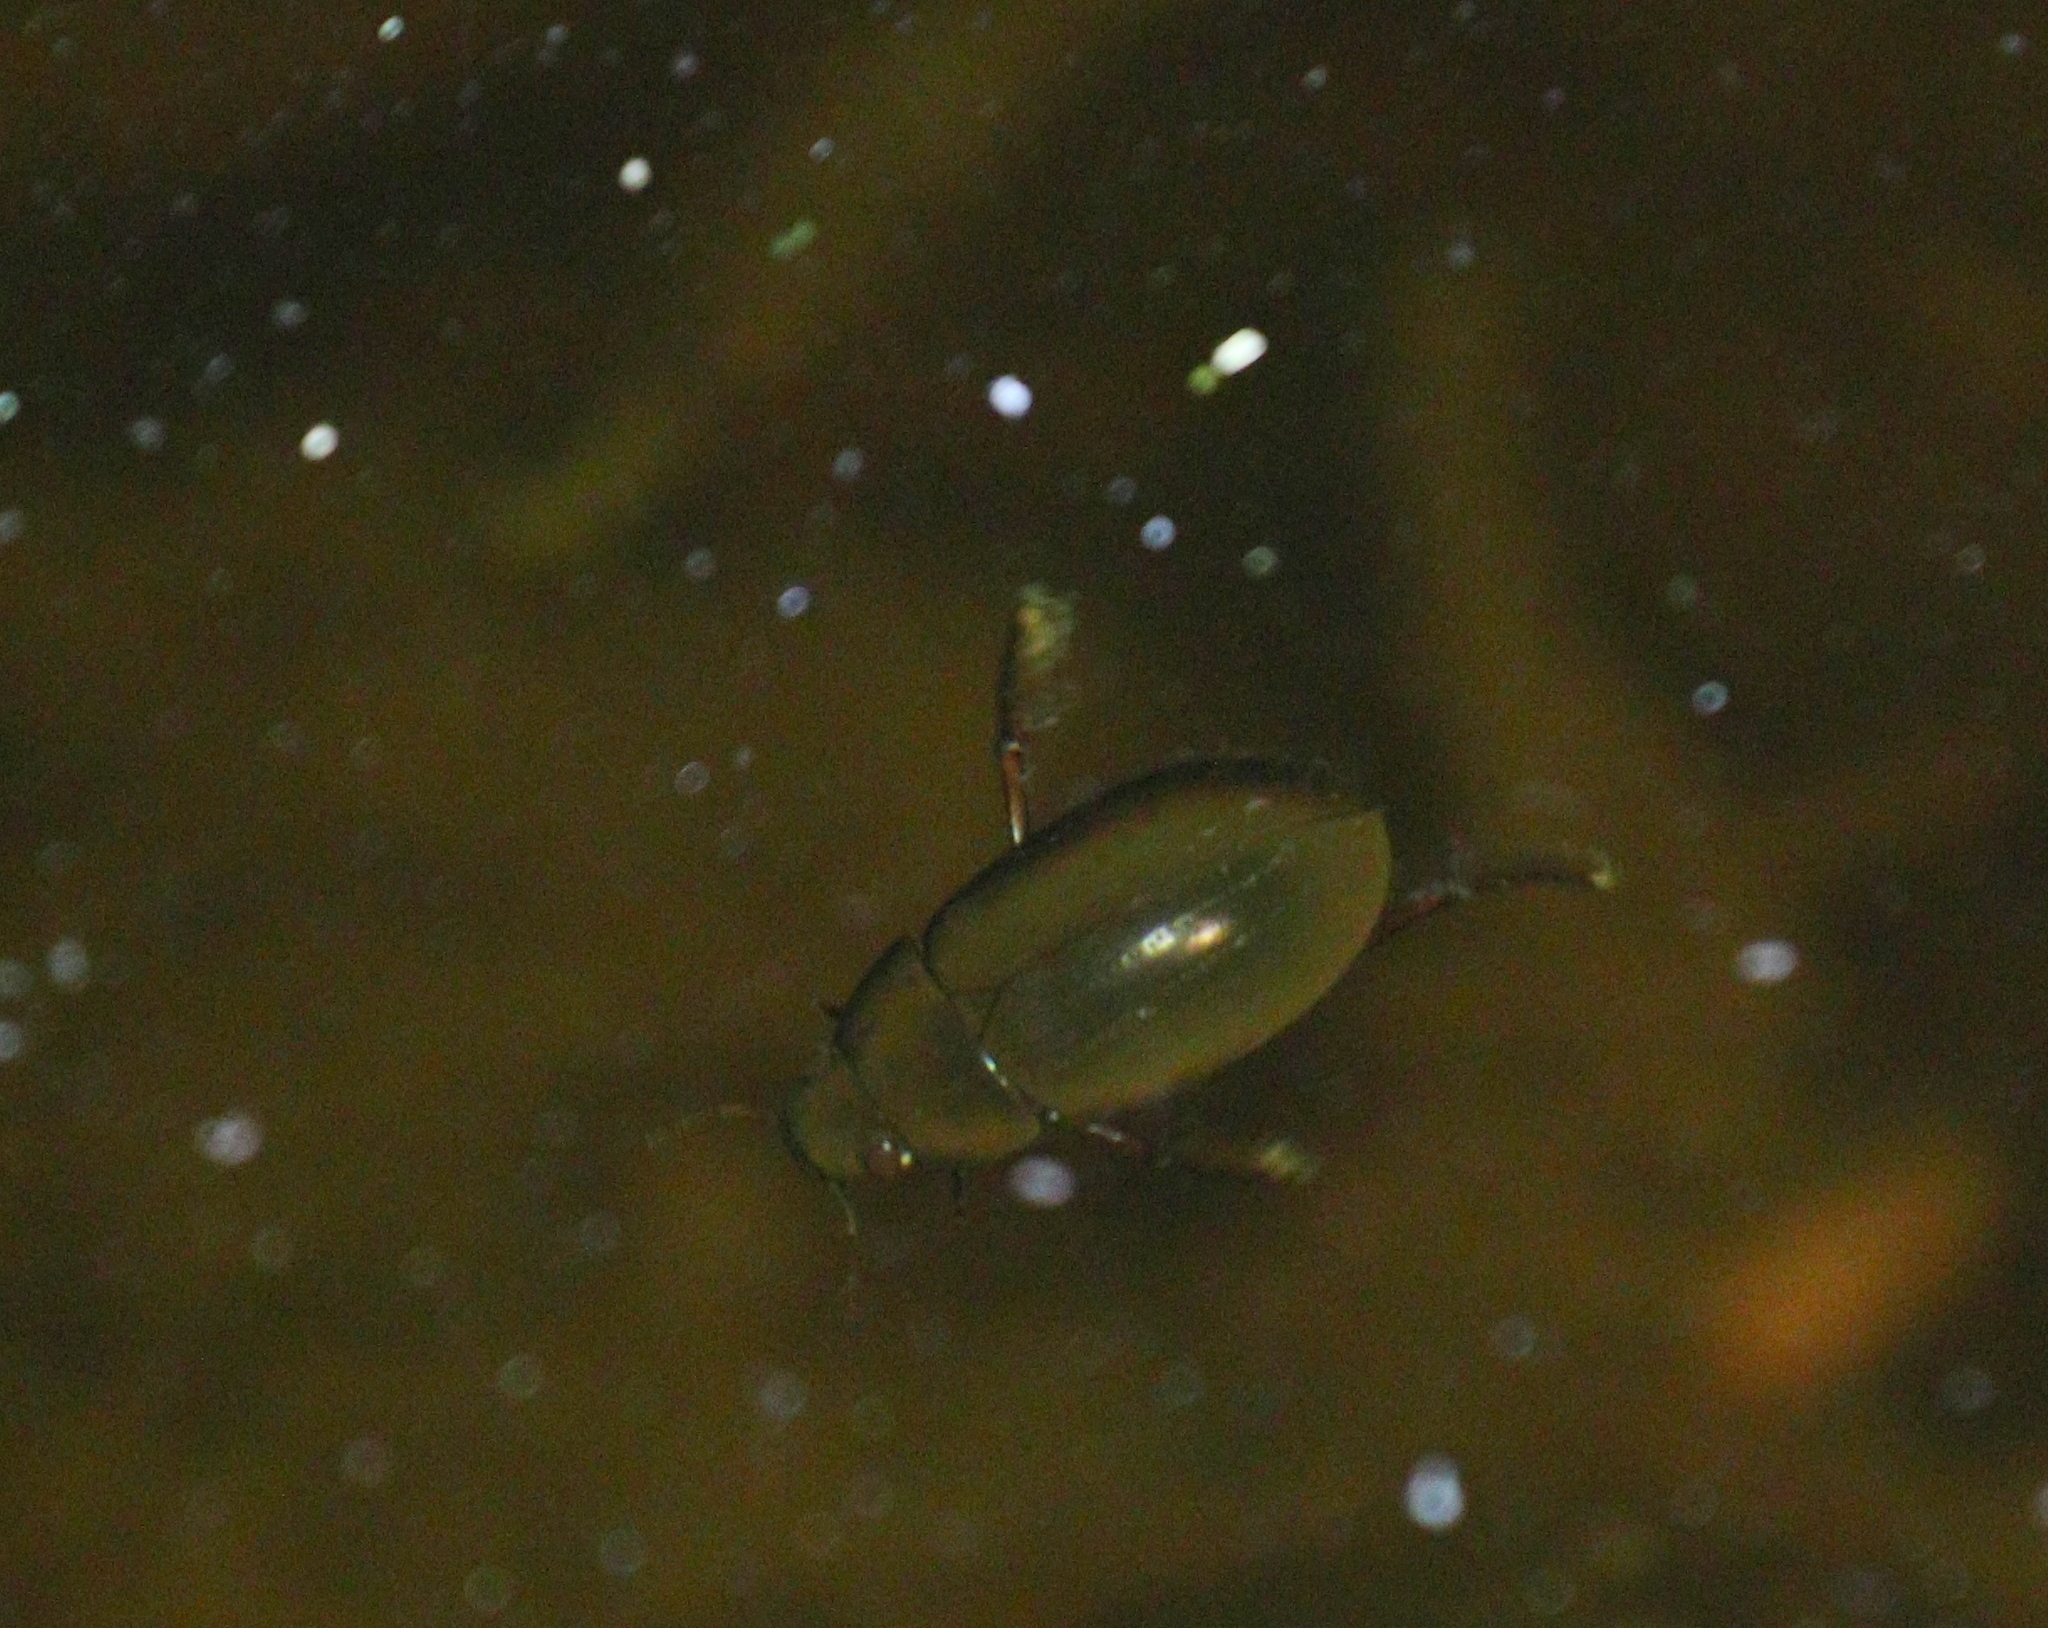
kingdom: Animalia
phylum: Arthropoda
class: Insecta
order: Coleoptera
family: Hydrophilidae
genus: Hydrochara
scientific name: Hydrochara caraboides
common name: Lesser silver water beetle
